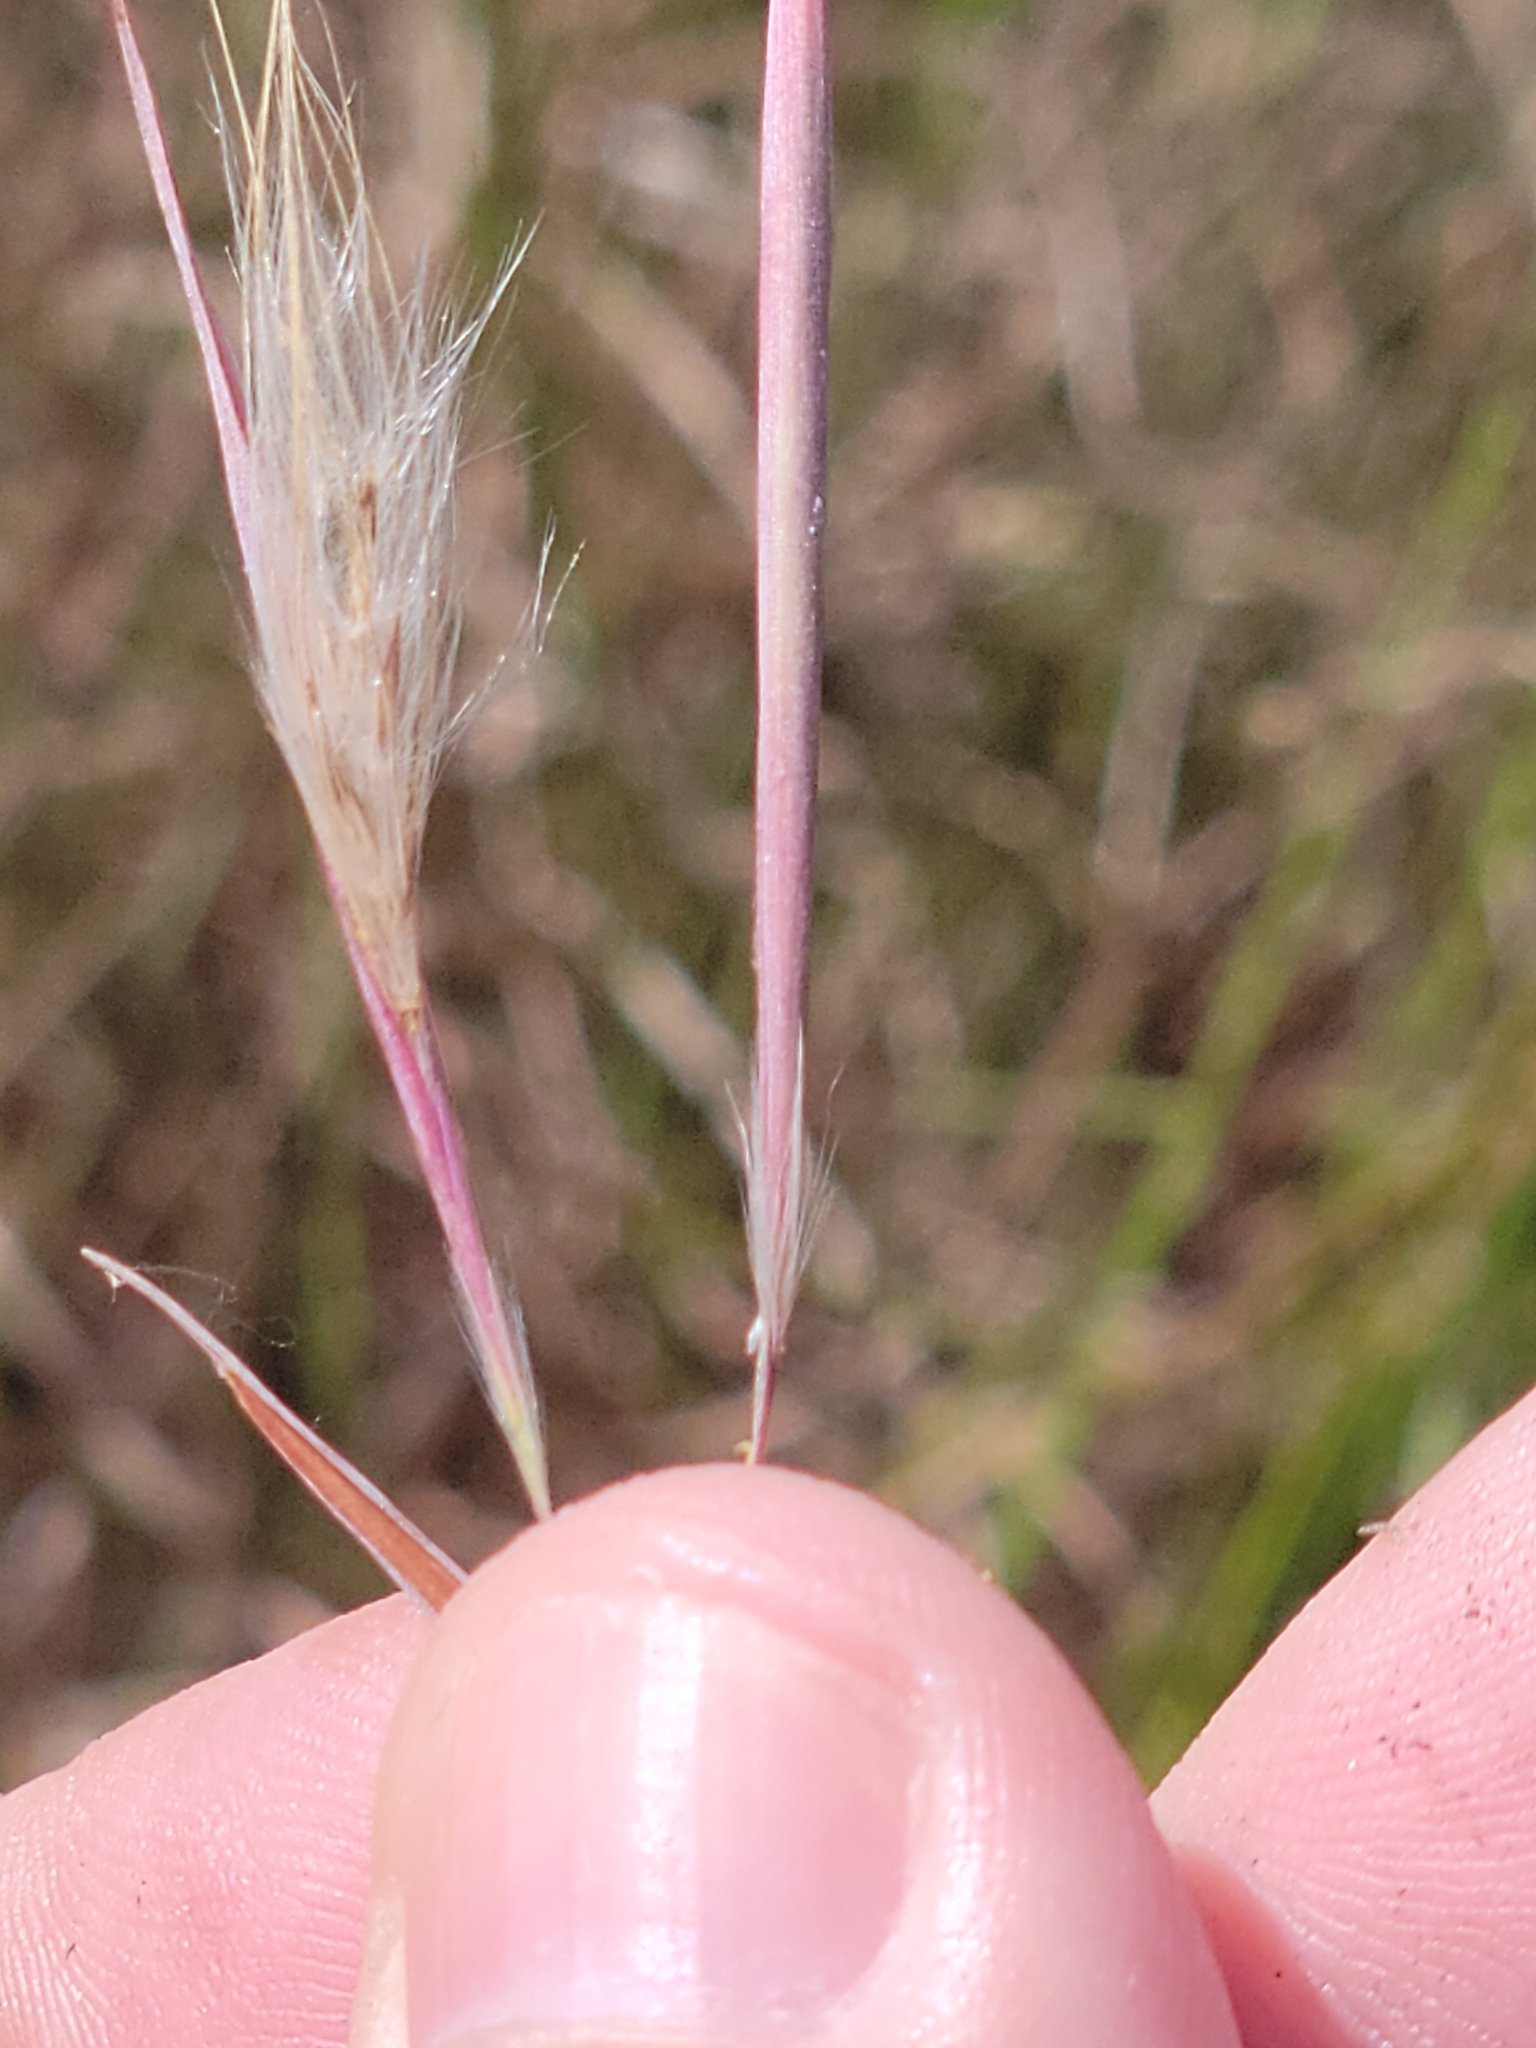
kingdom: Plantae
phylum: Tracheophyta
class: Liliopsida
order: Poales
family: Poaceae
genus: Andropogon
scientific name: Andropogon dealbatus
